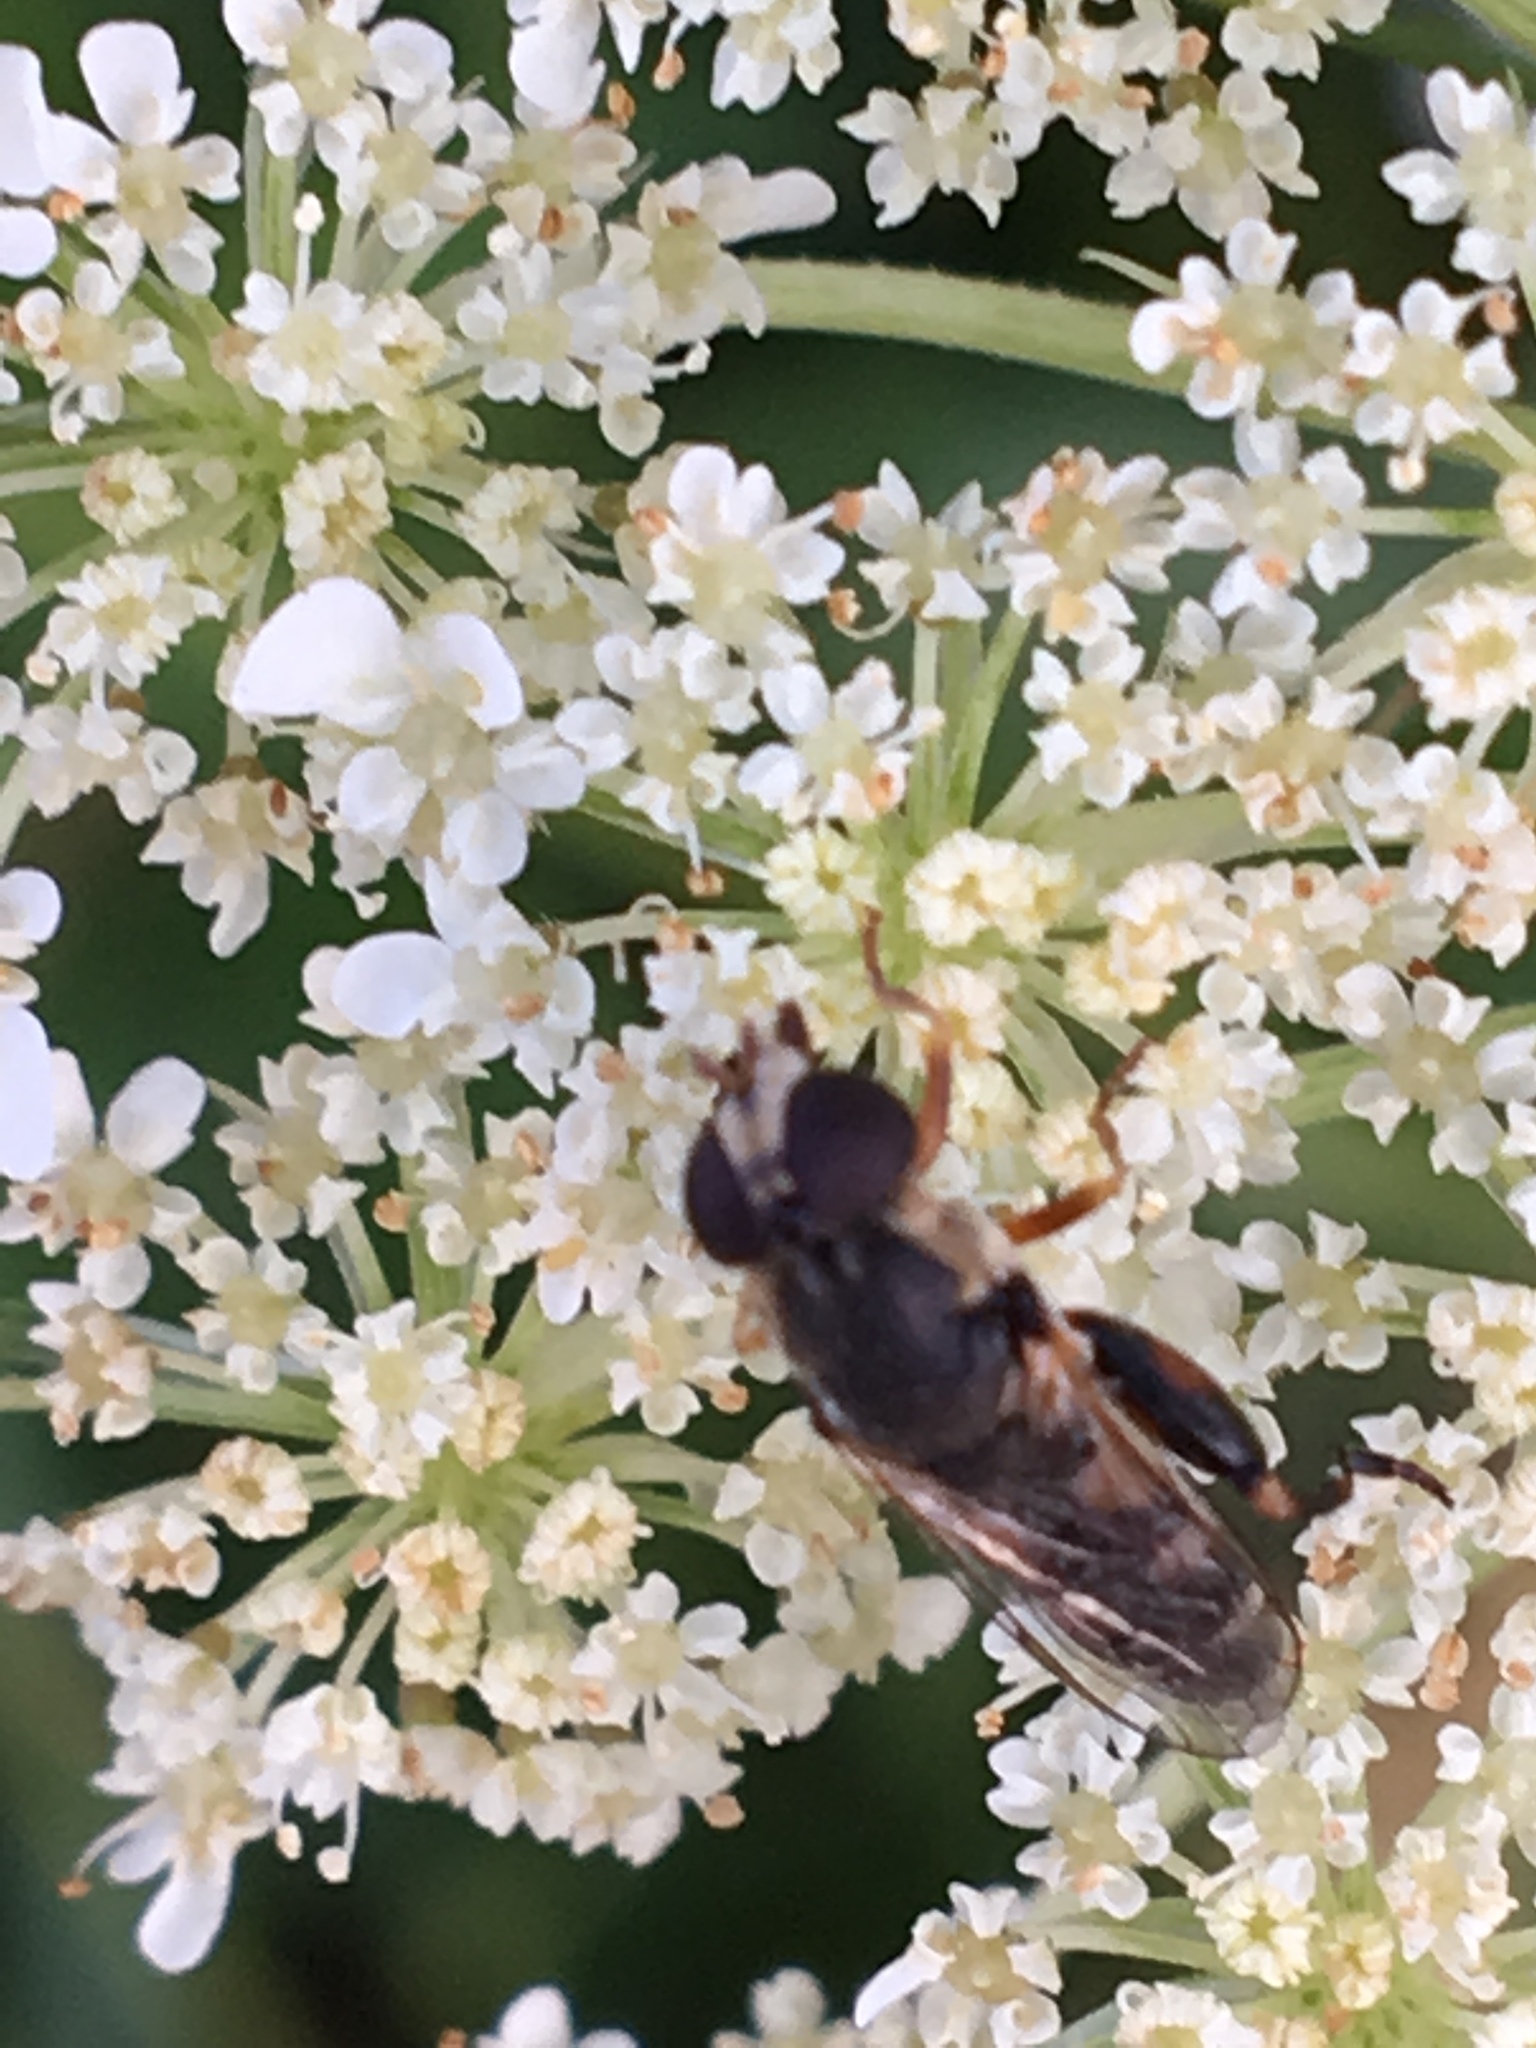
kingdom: Animalia
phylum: Arthropoda
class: Insecta
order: Diptera
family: Syrphidae
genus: Syritta
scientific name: Syritta pipiens
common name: Hover fly
